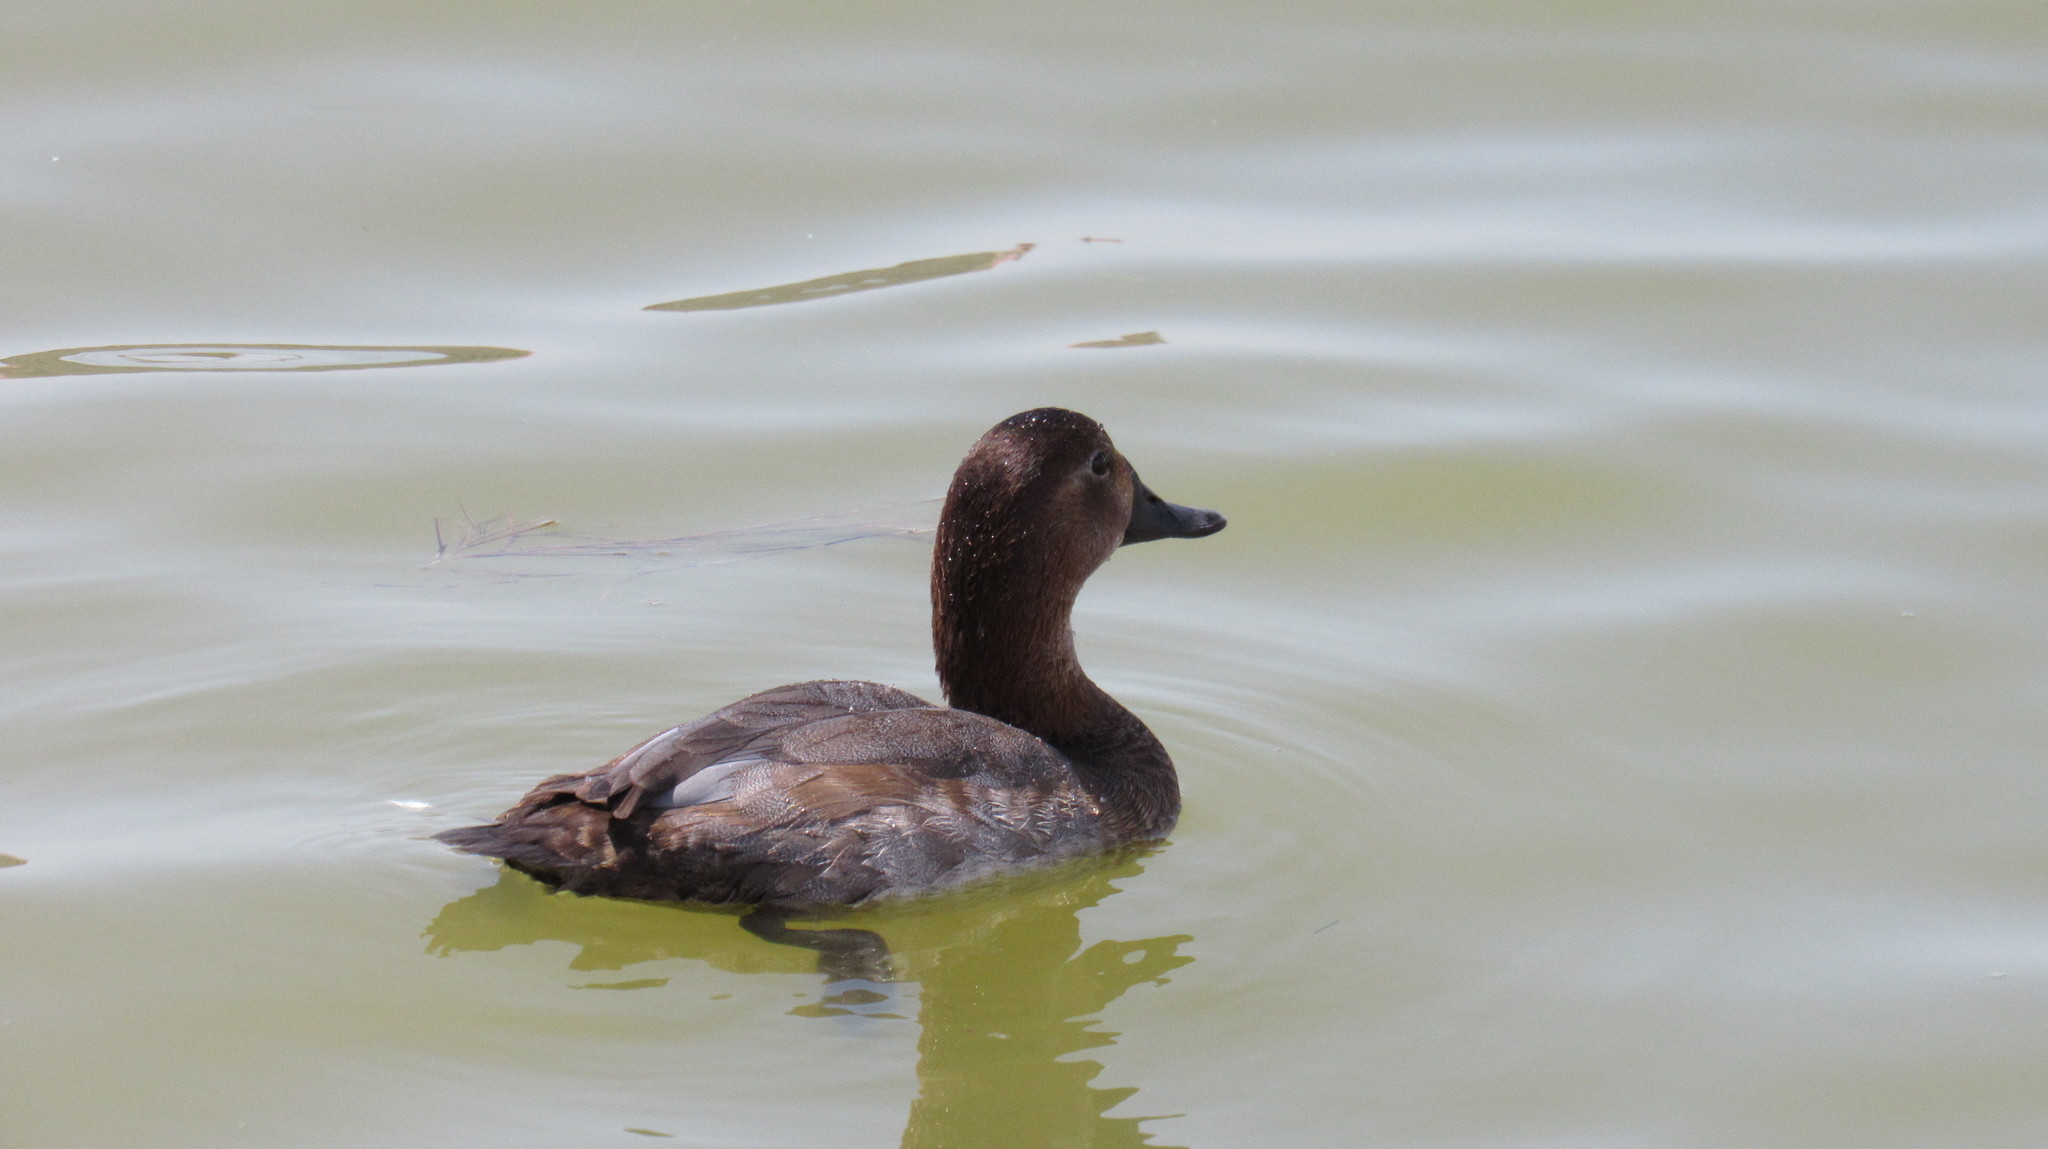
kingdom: Animalia
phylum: Chordata
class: Aves
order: Anseriformes
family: Anatidae
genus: Aythya
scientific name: Aythya ferina
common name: Common pochard
